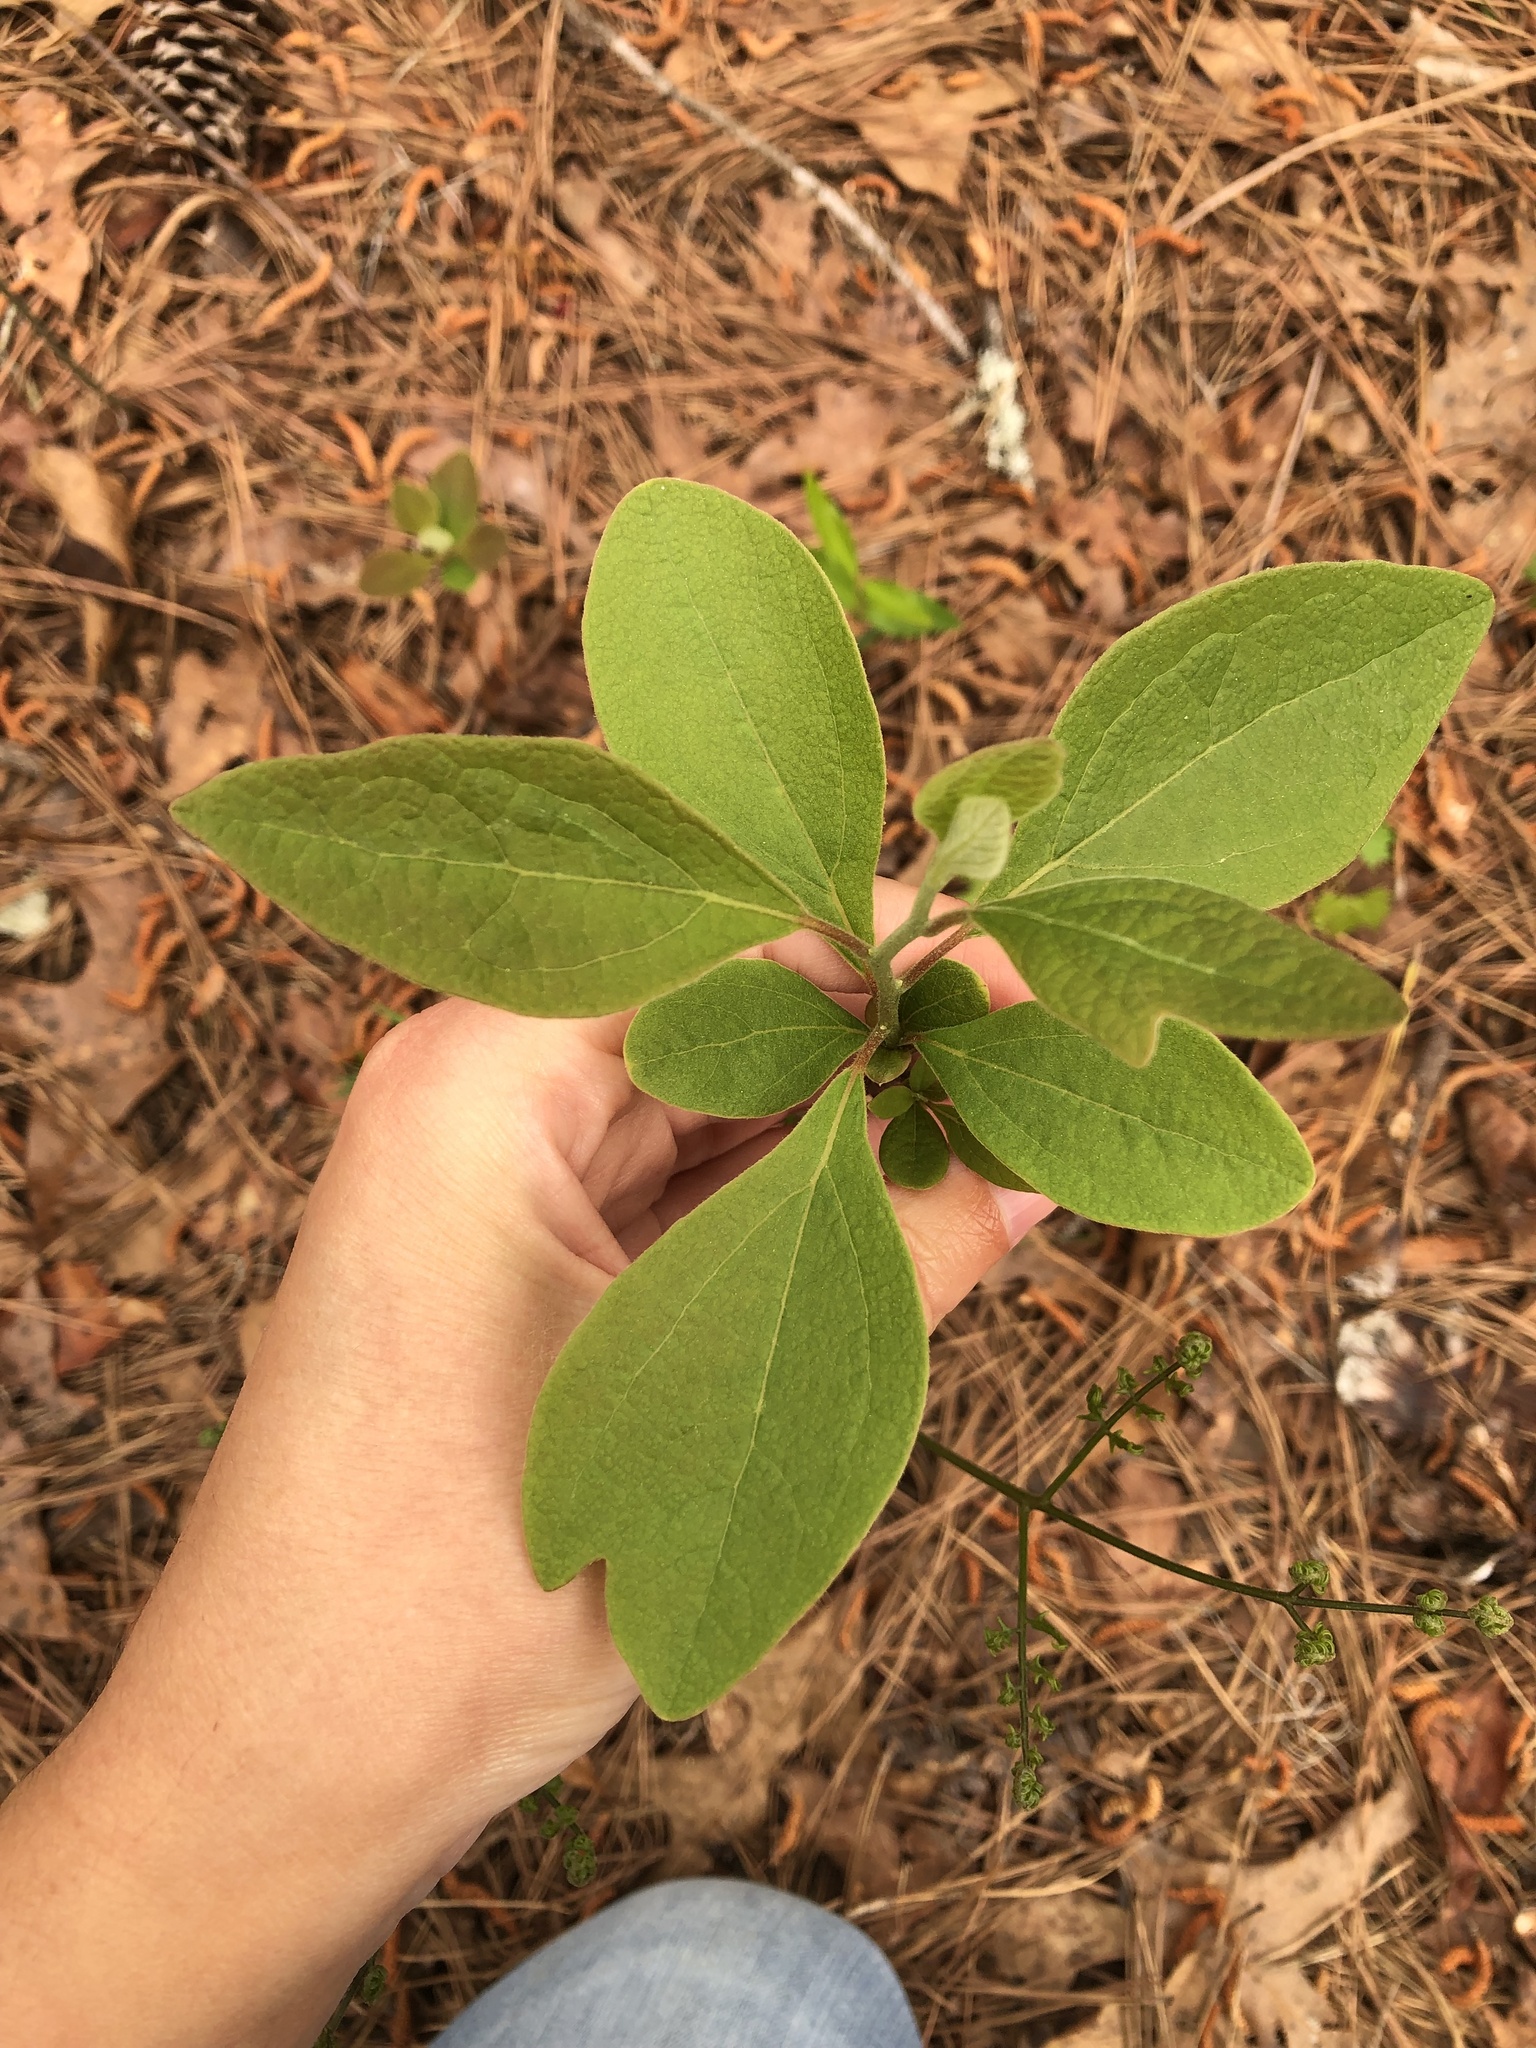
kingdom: Plantae
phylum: Tracheophyta
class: Magnoliopsida
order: Laurales
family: Lauraceae
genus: Sassafras
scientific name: Sassafras albidum
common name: Sassafras
